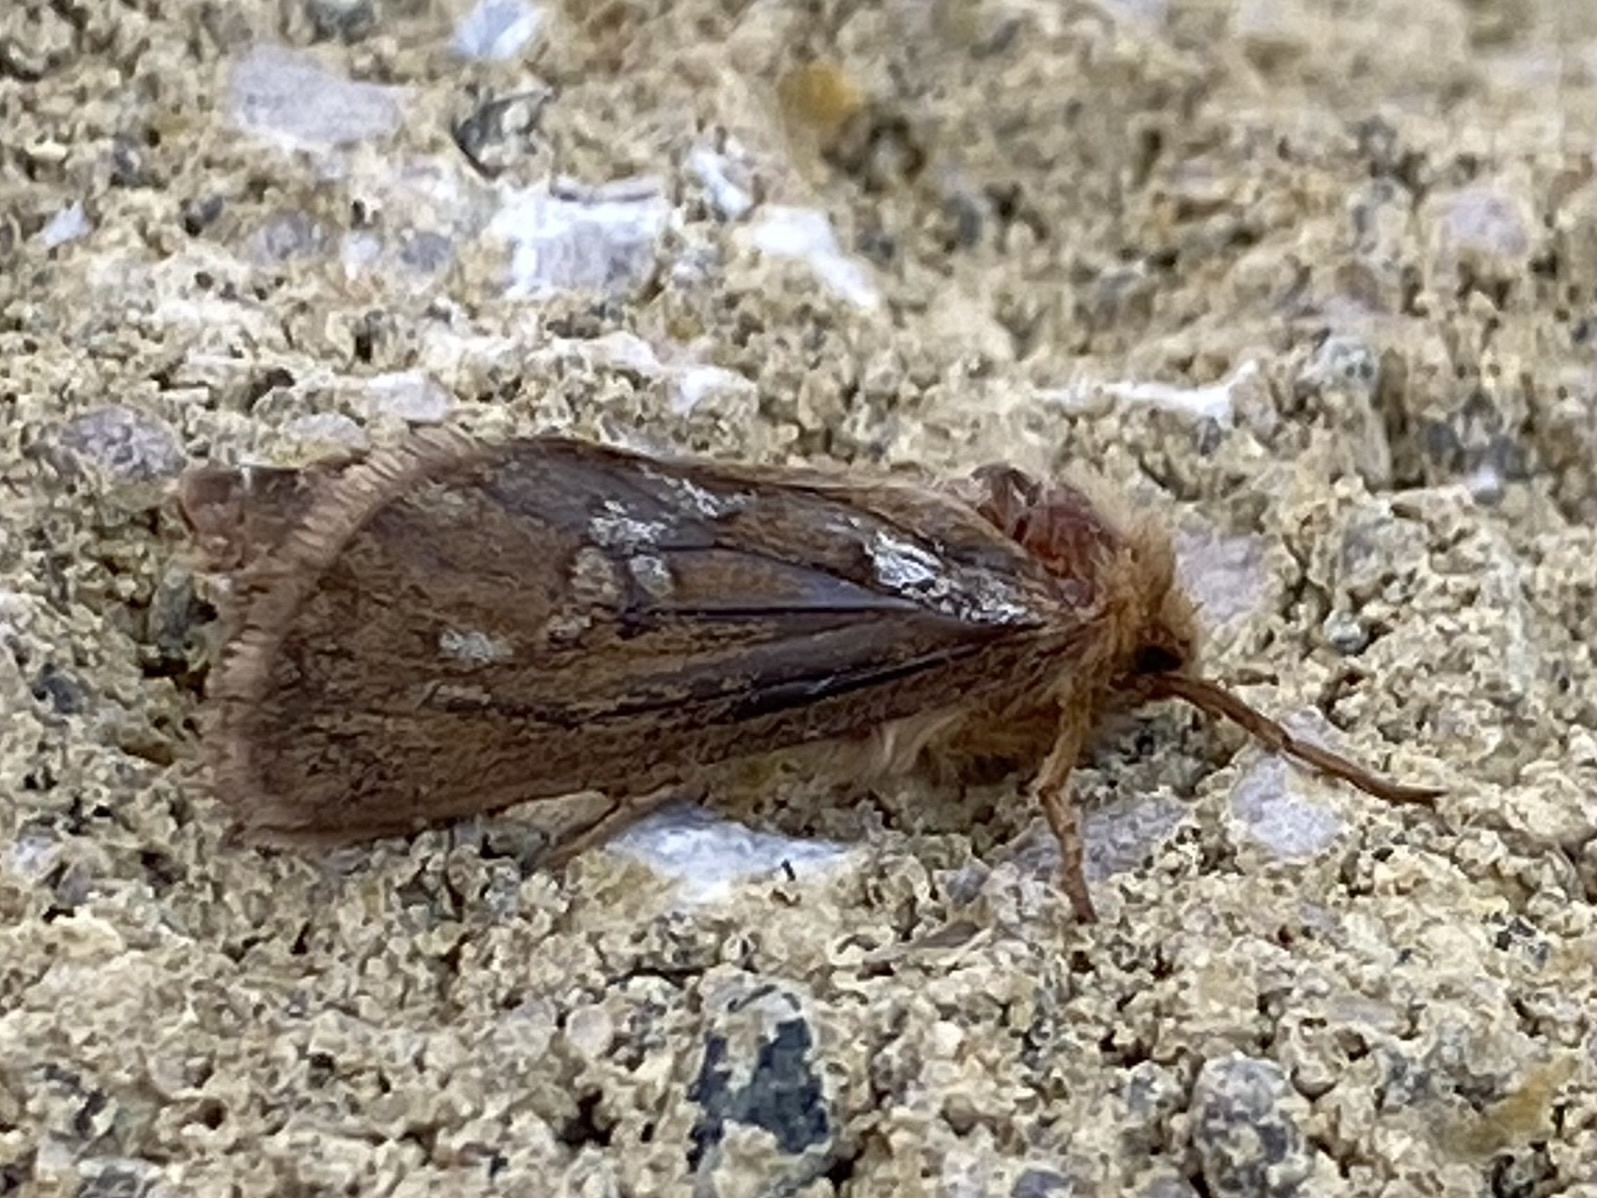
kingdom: Animalia
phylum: Arthropoda
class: Insecta
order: Lepidoptera
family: Hepialidae
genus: Korscheltellus
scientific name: Korscheltellus lupulina
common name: Common swift
